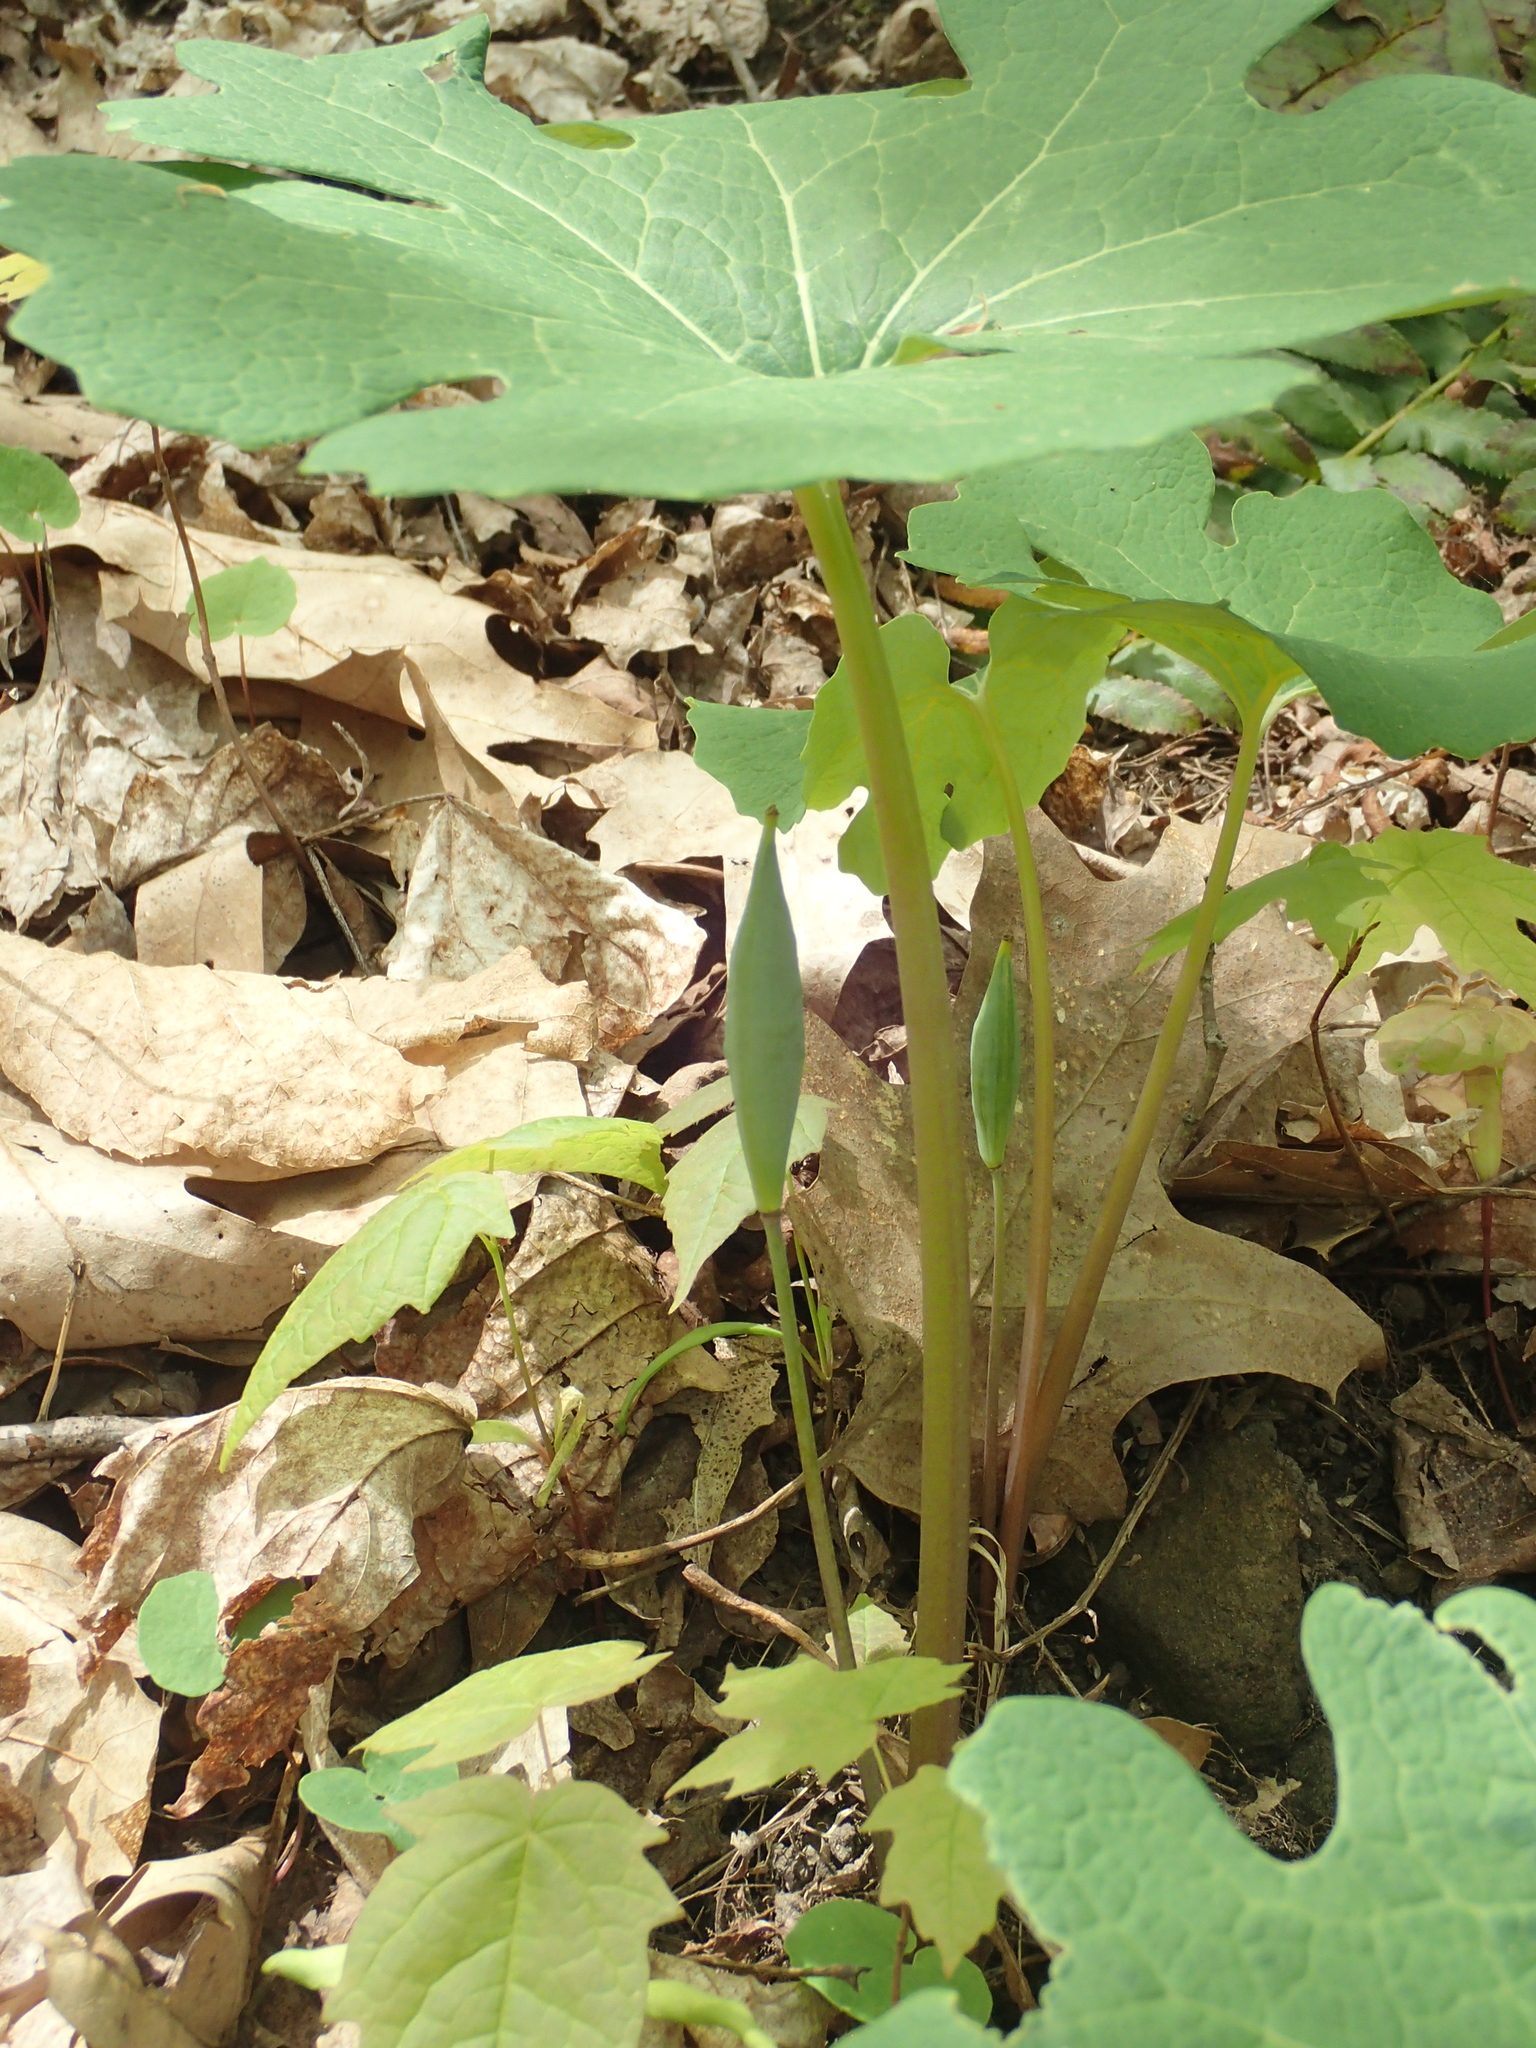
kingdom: Plantae
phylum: Tracheophyta
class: Magnoliopsida
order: Ranunculales
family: Papaveraceae
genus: Sanguinaria
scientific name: Sanguinaria canadensis
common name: Bloodroot
